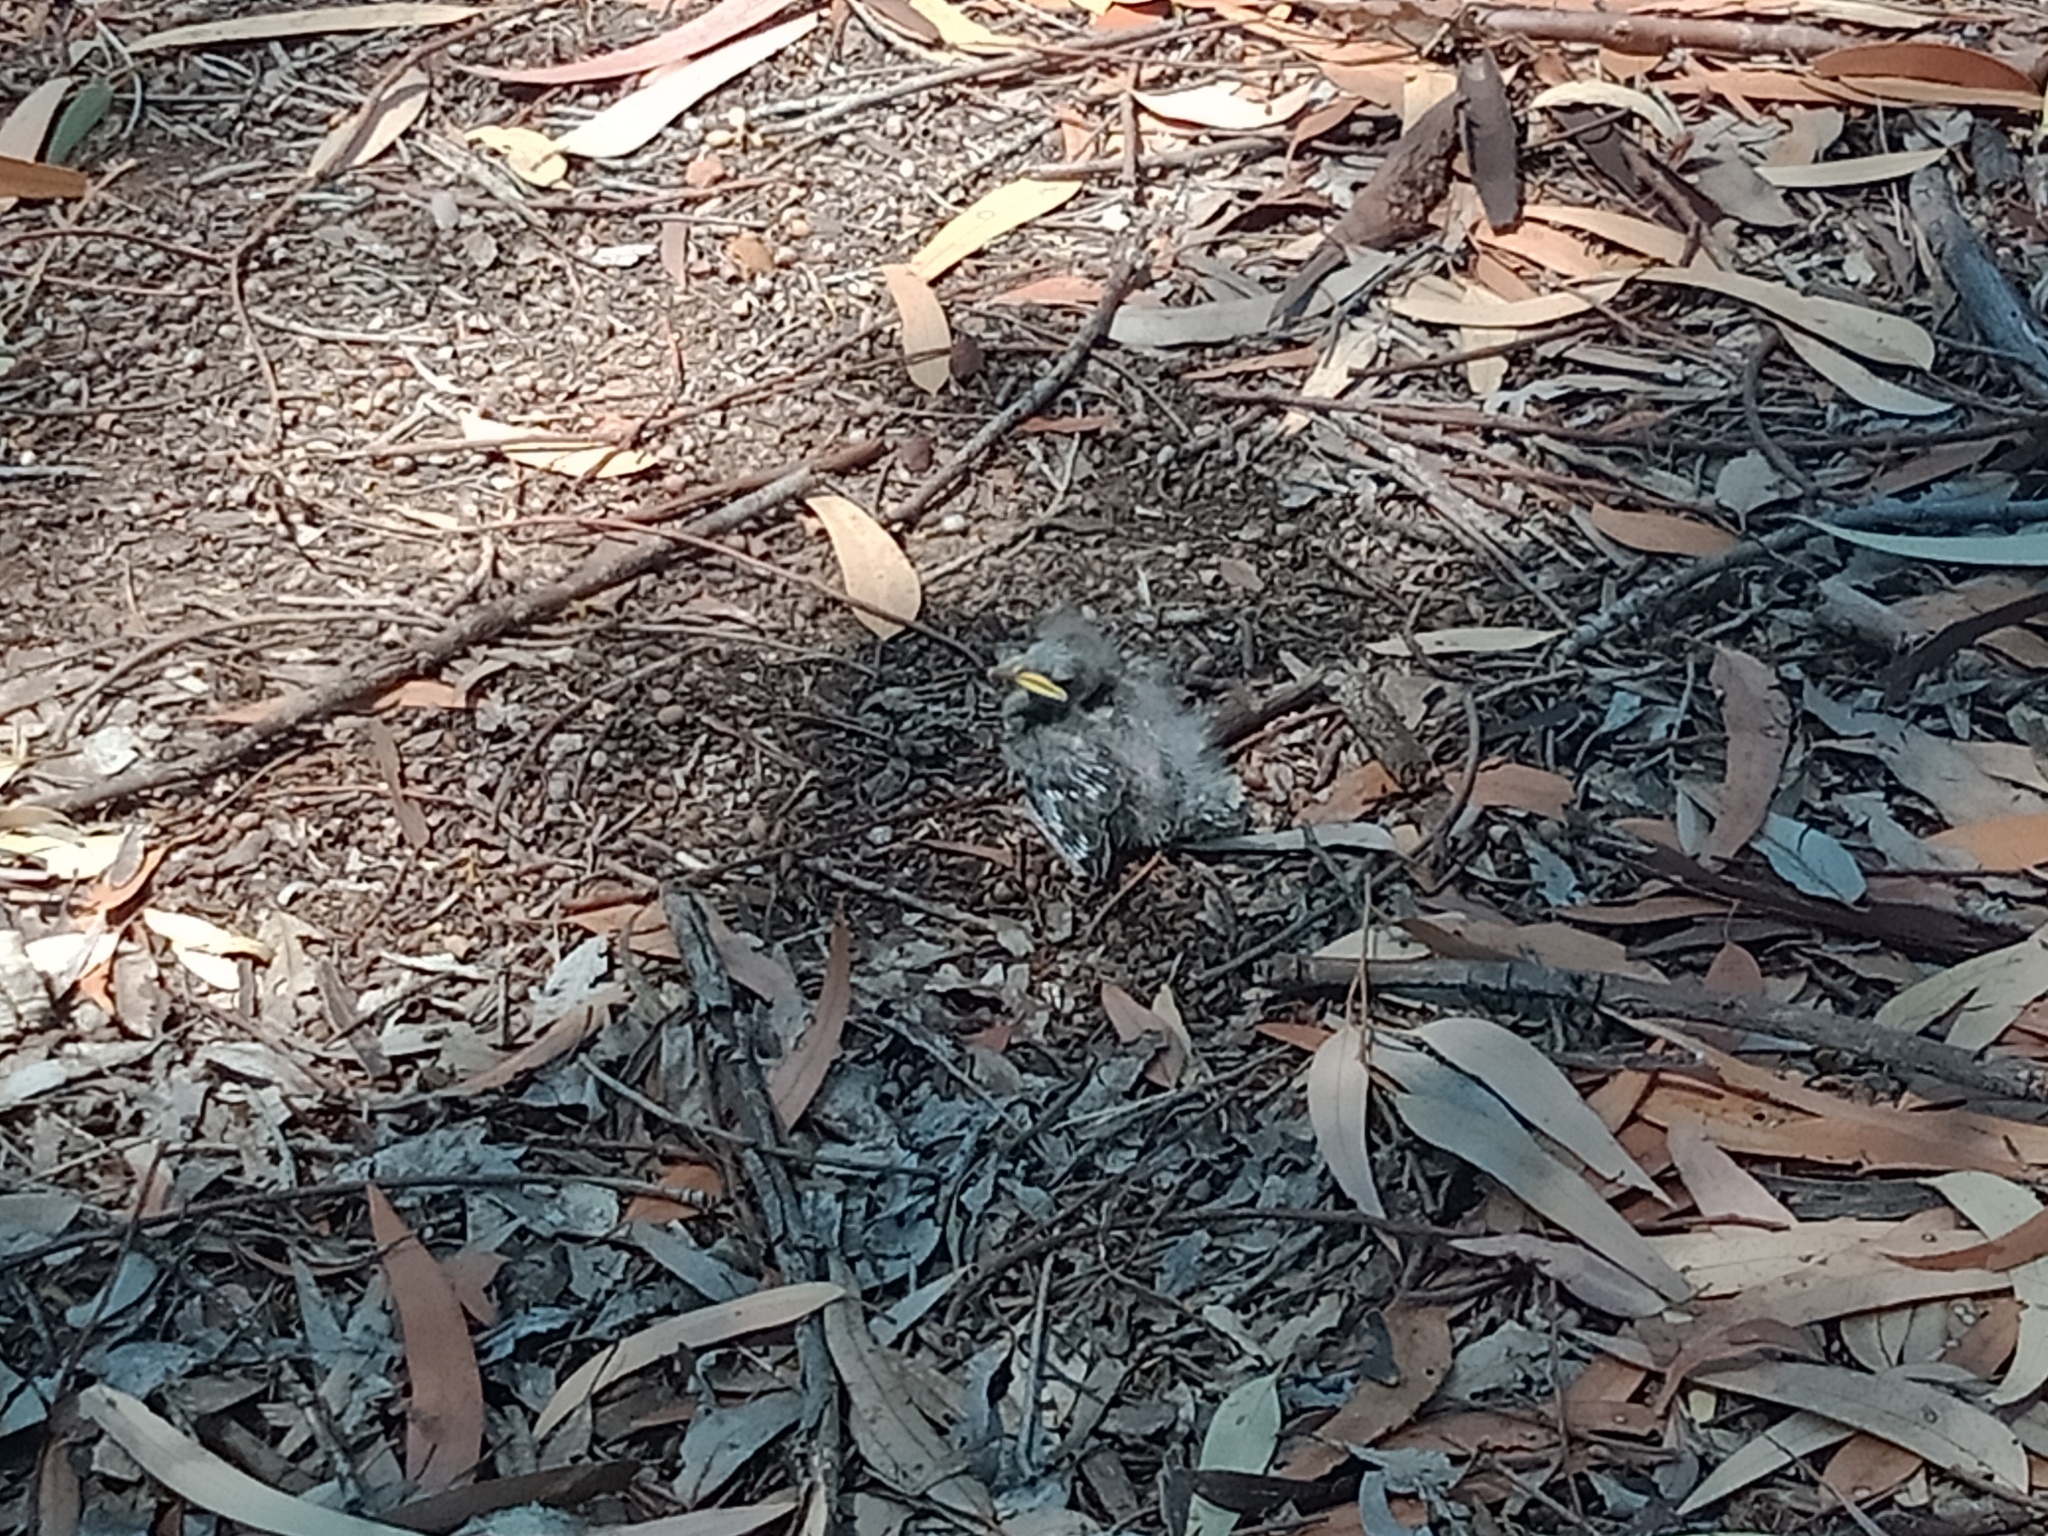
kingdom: Animalia
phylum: Chordata
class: Aves
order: Passeriformes
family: Meliphagidae
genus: Manorina
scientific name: Manorina melanocephala
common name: Noisy miner
